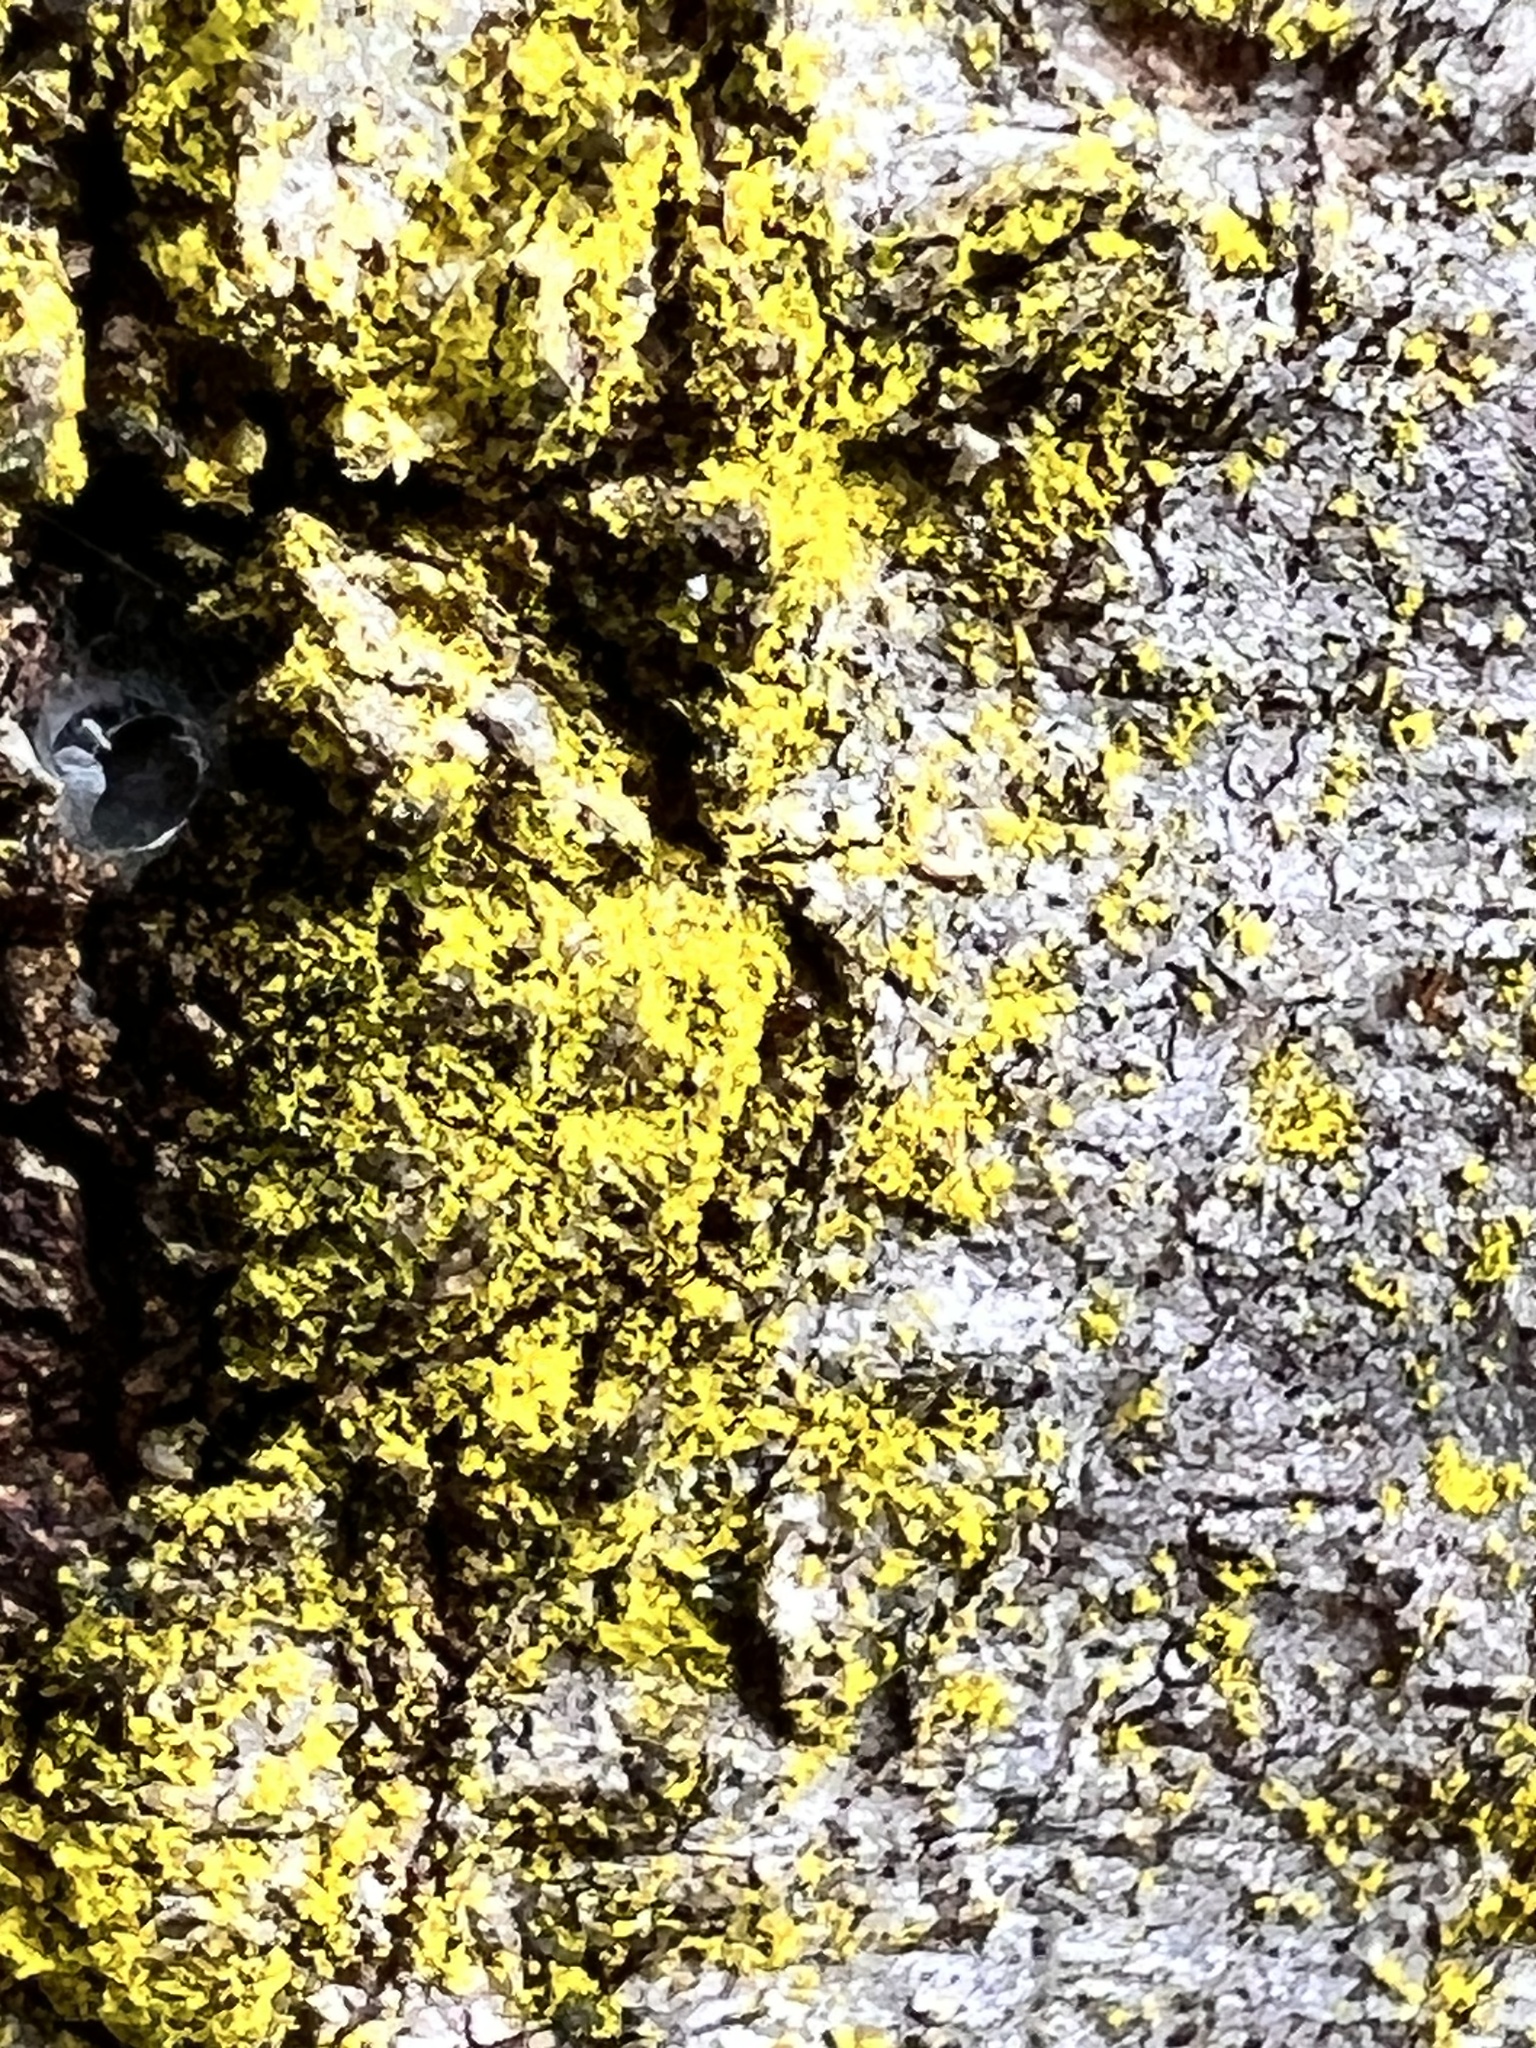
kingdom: Fungi
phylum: Ascomycota
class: Arthoniomycetes
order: Arthoniales
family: Chrysotrichaceae
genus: Chrysothrix
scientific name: Chrysothrix candelaris
